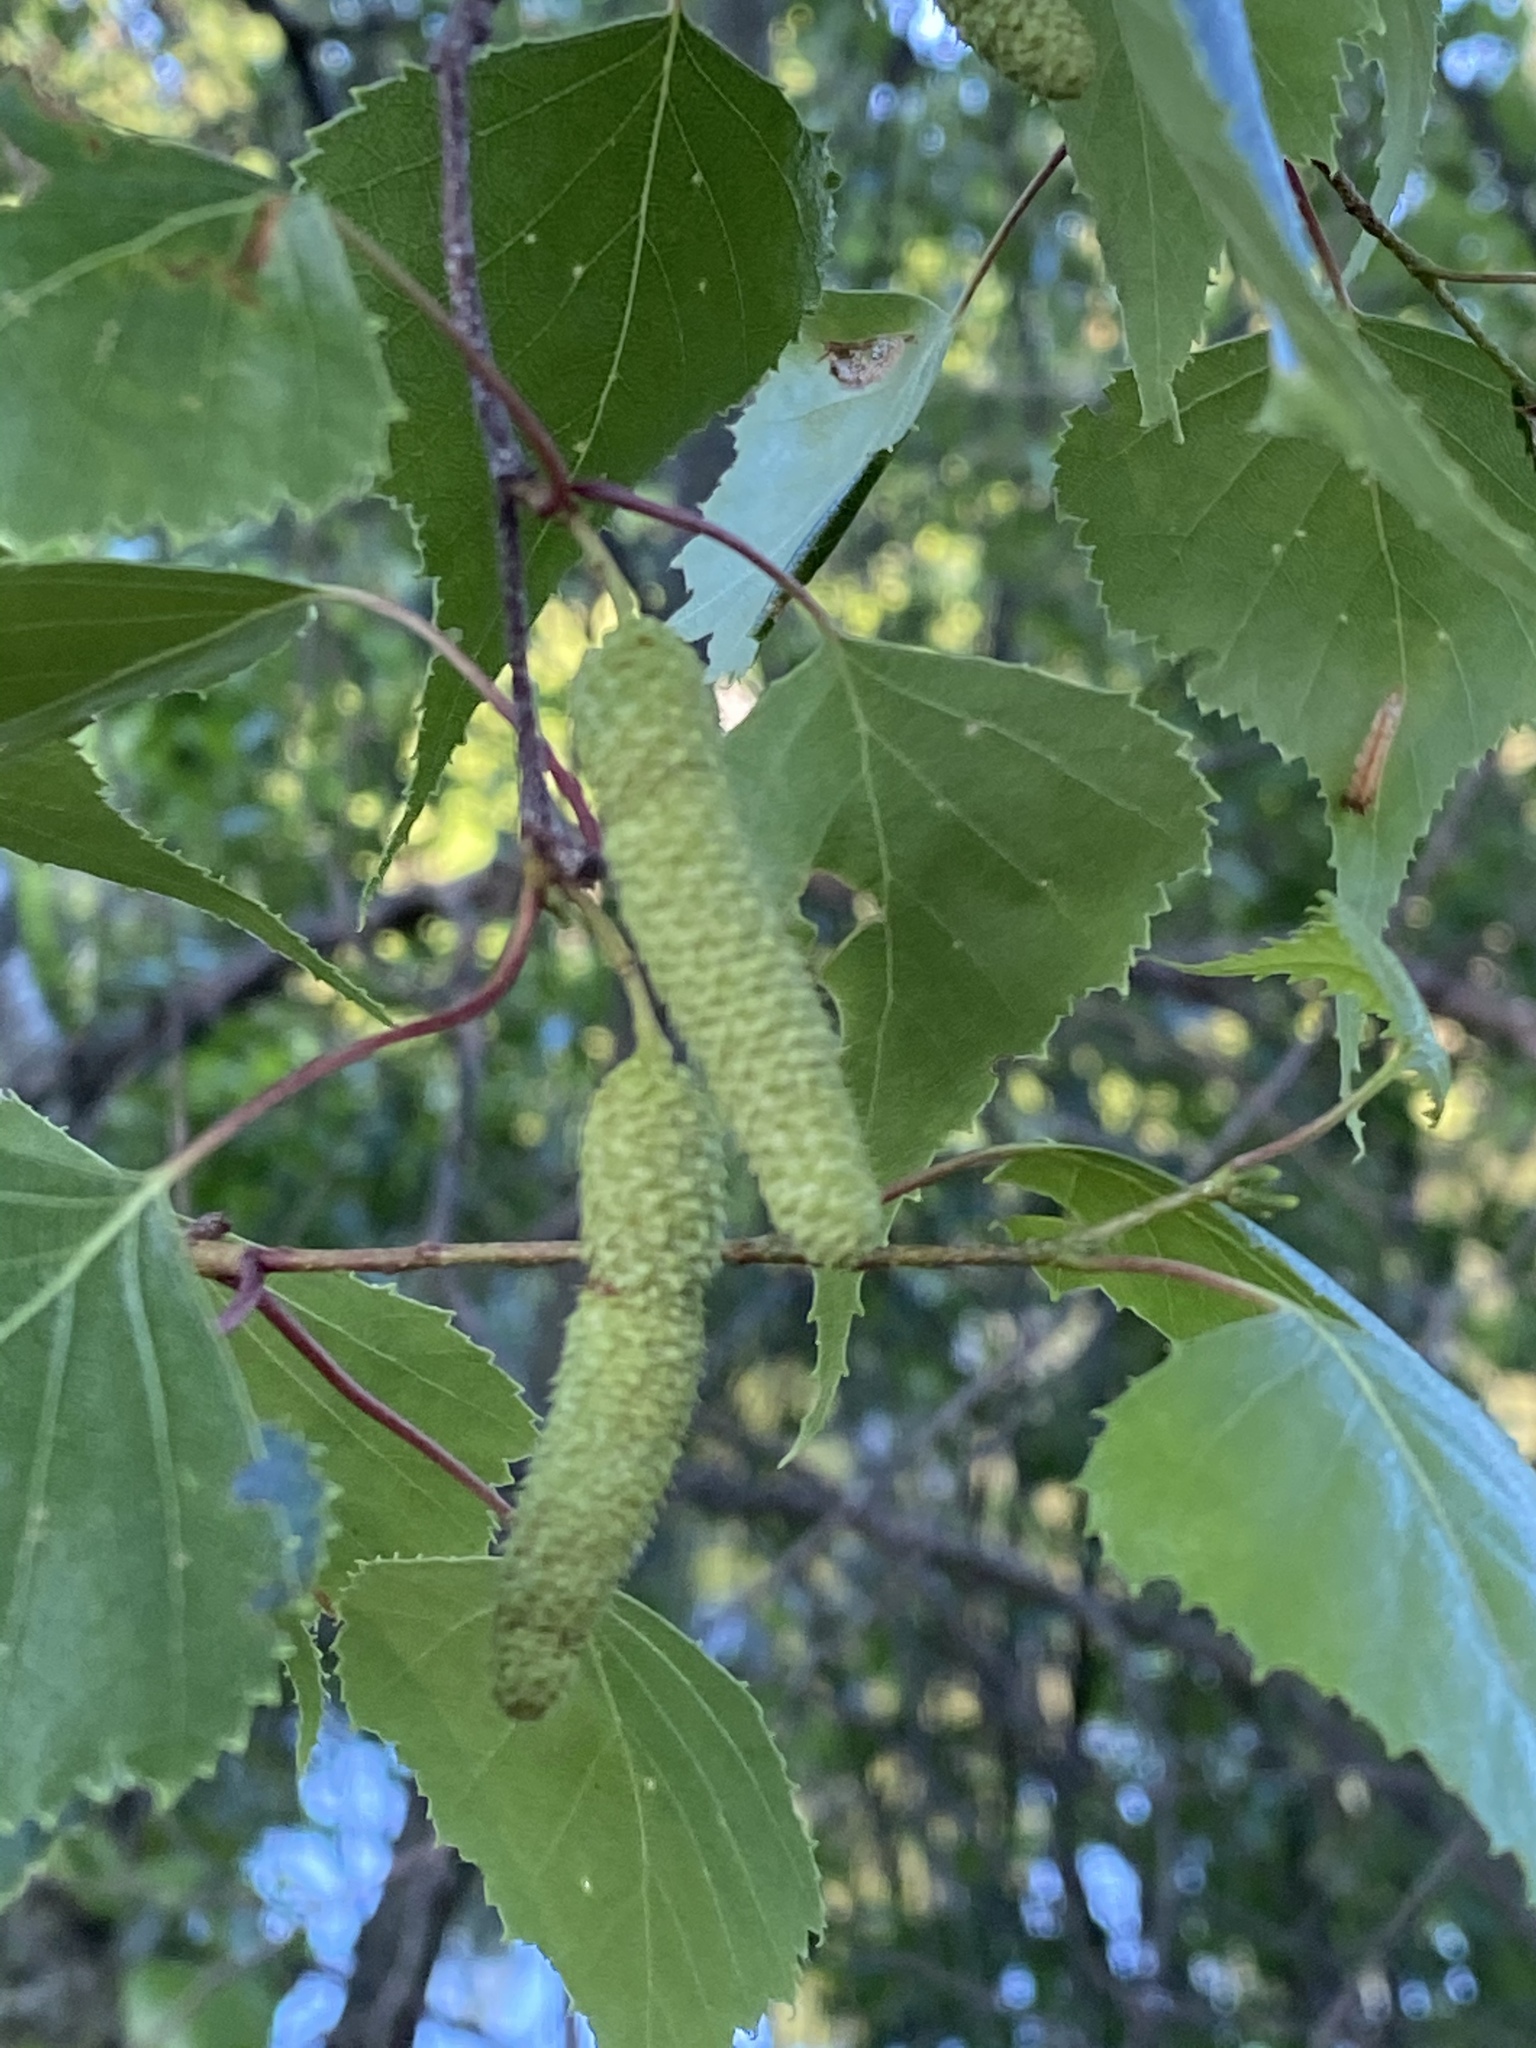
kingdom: Plantae
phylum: Tracheophyta
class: Magnoliopsida
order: Fagales
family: Betulaceae
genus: Betula
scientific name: Betula populifolia
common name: Fire birch
